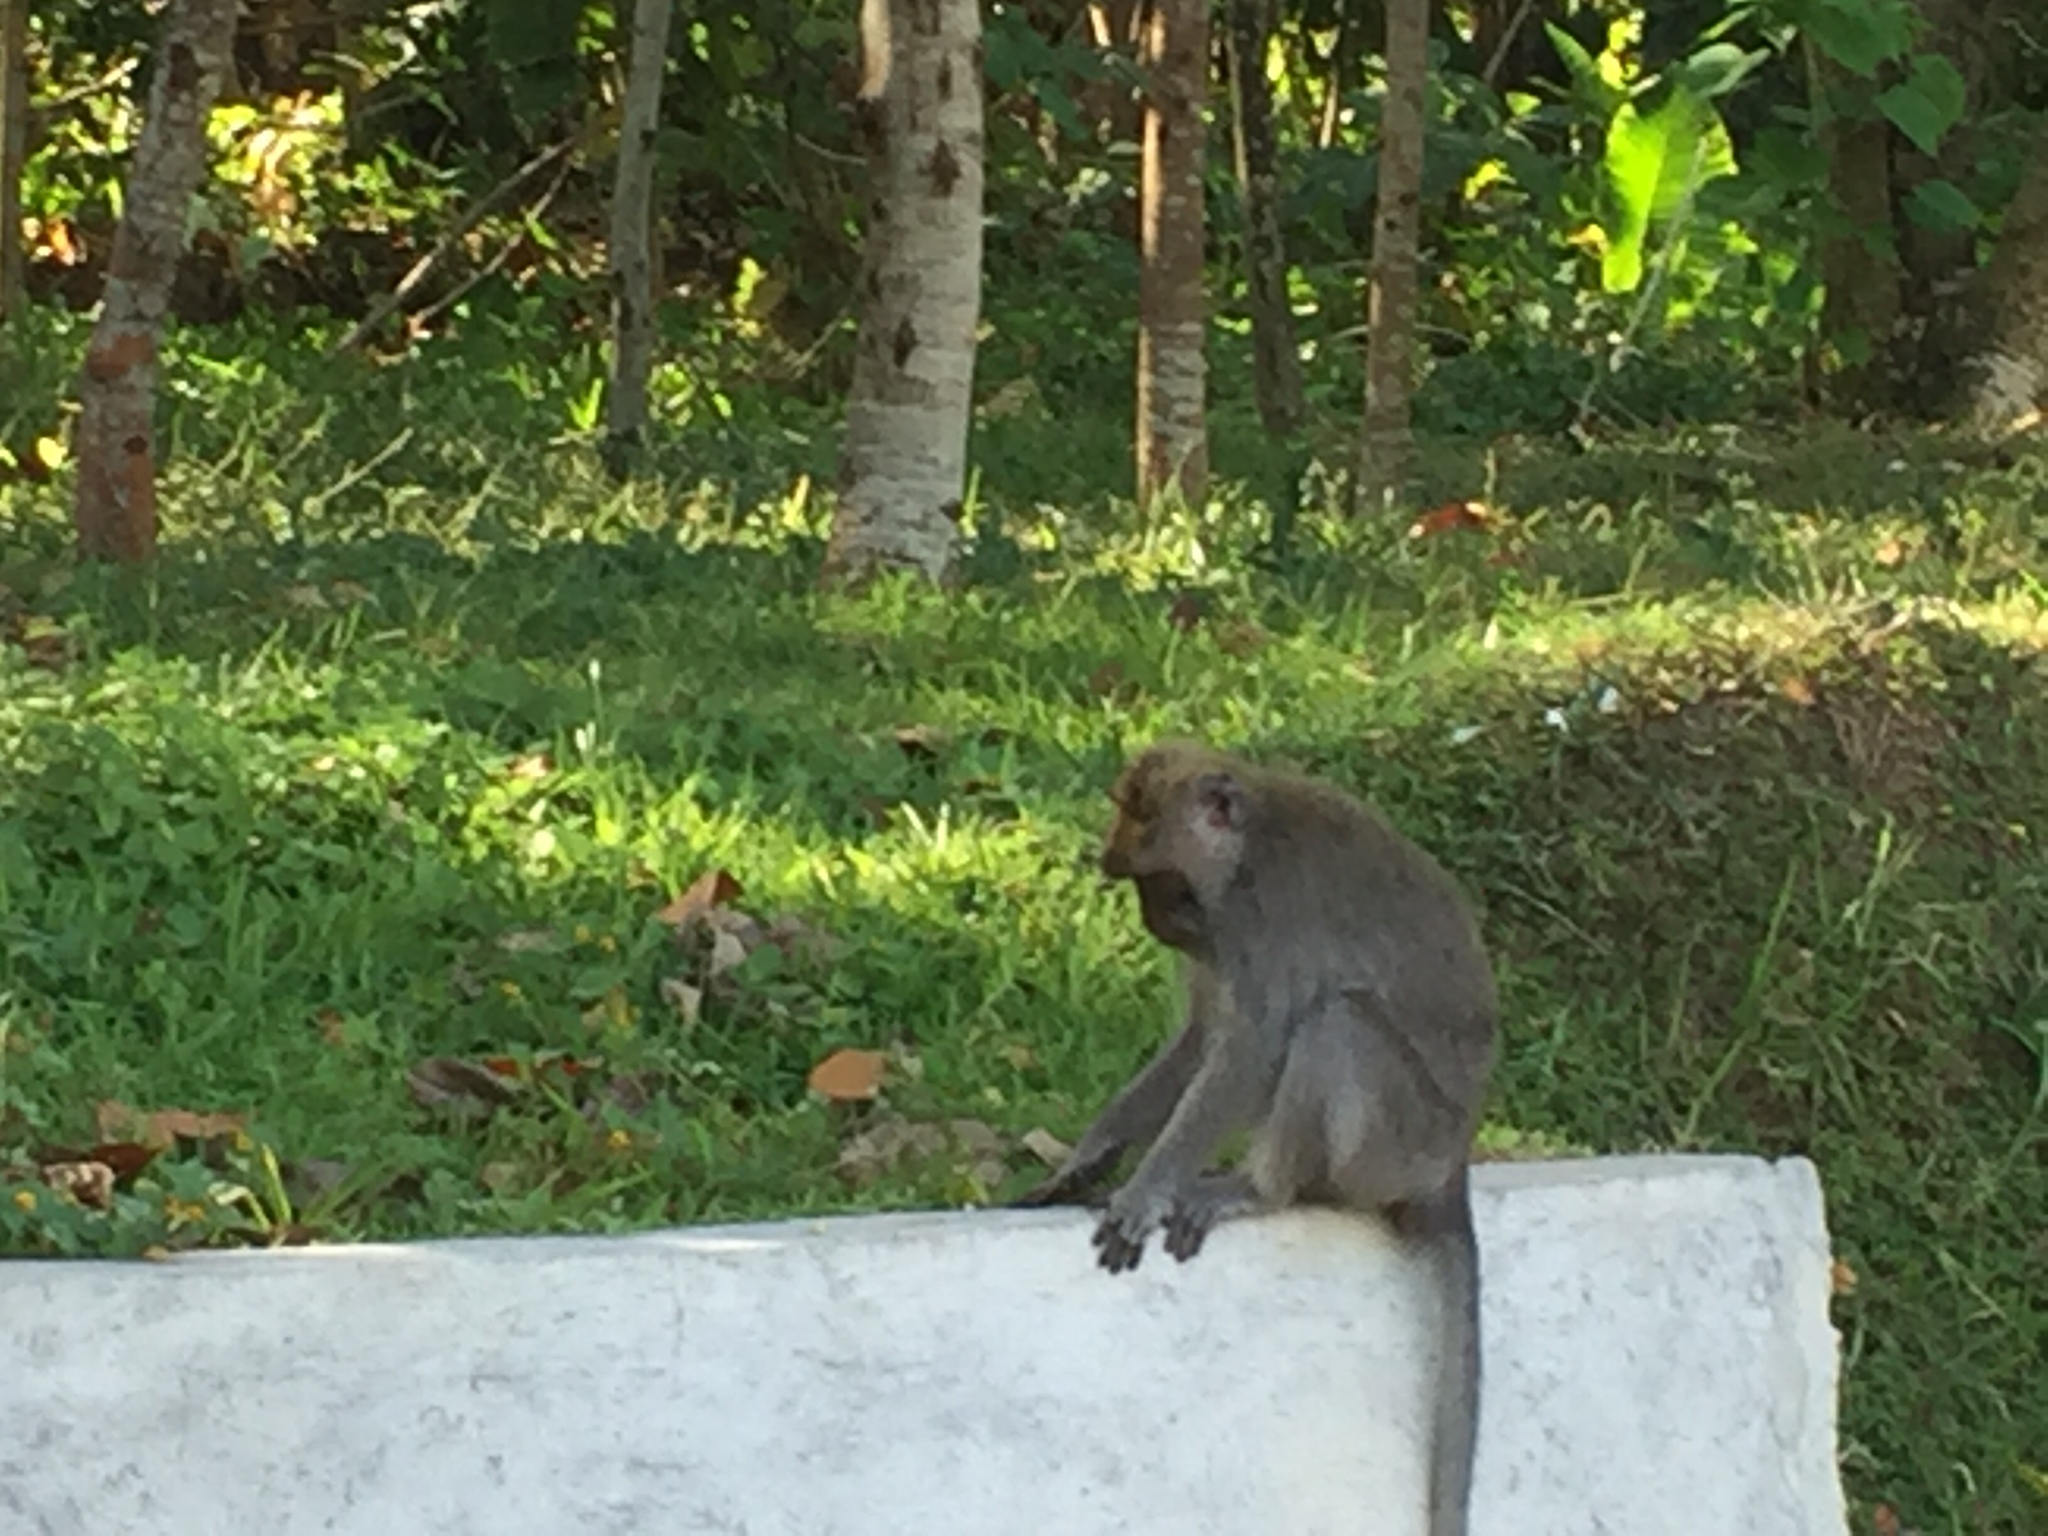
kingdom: Animalia
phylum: Chordata
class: Mammalia
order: Primates
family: Cercopithecidae
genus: Macaca
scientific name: Macaca fascicularis
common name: Crab-eating macaque
